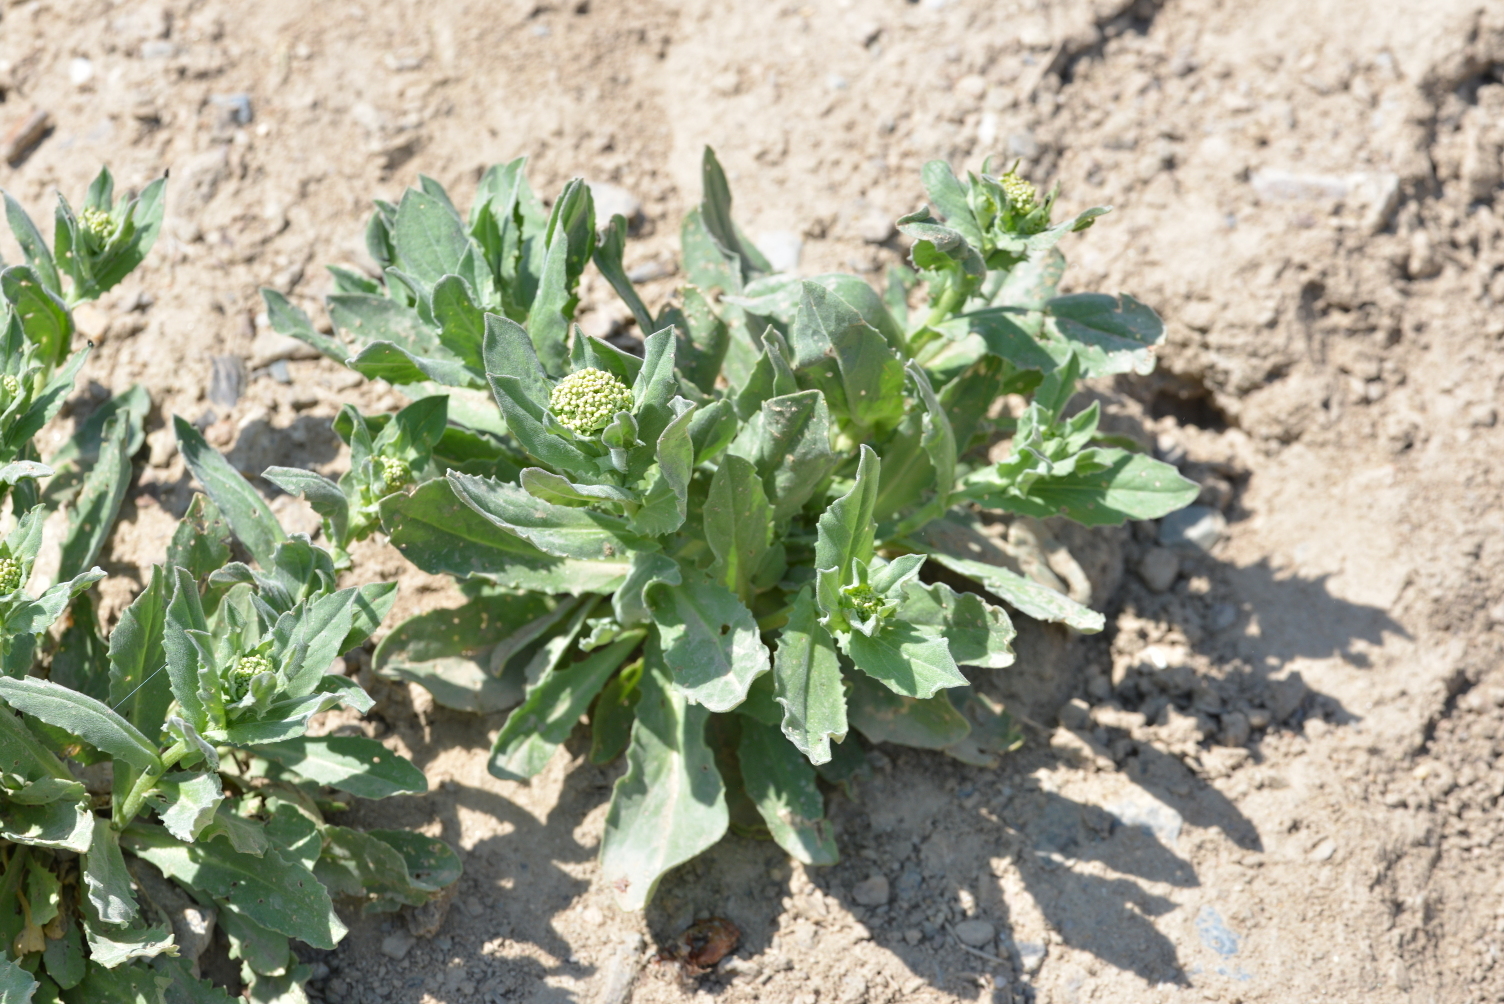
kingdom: Plantae
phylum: Tracheophyta
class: Magnoliopsida
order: Brassicales
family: Brassicaceae
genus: Lepidium
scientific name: Lepidium draba
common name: Hoary cress
